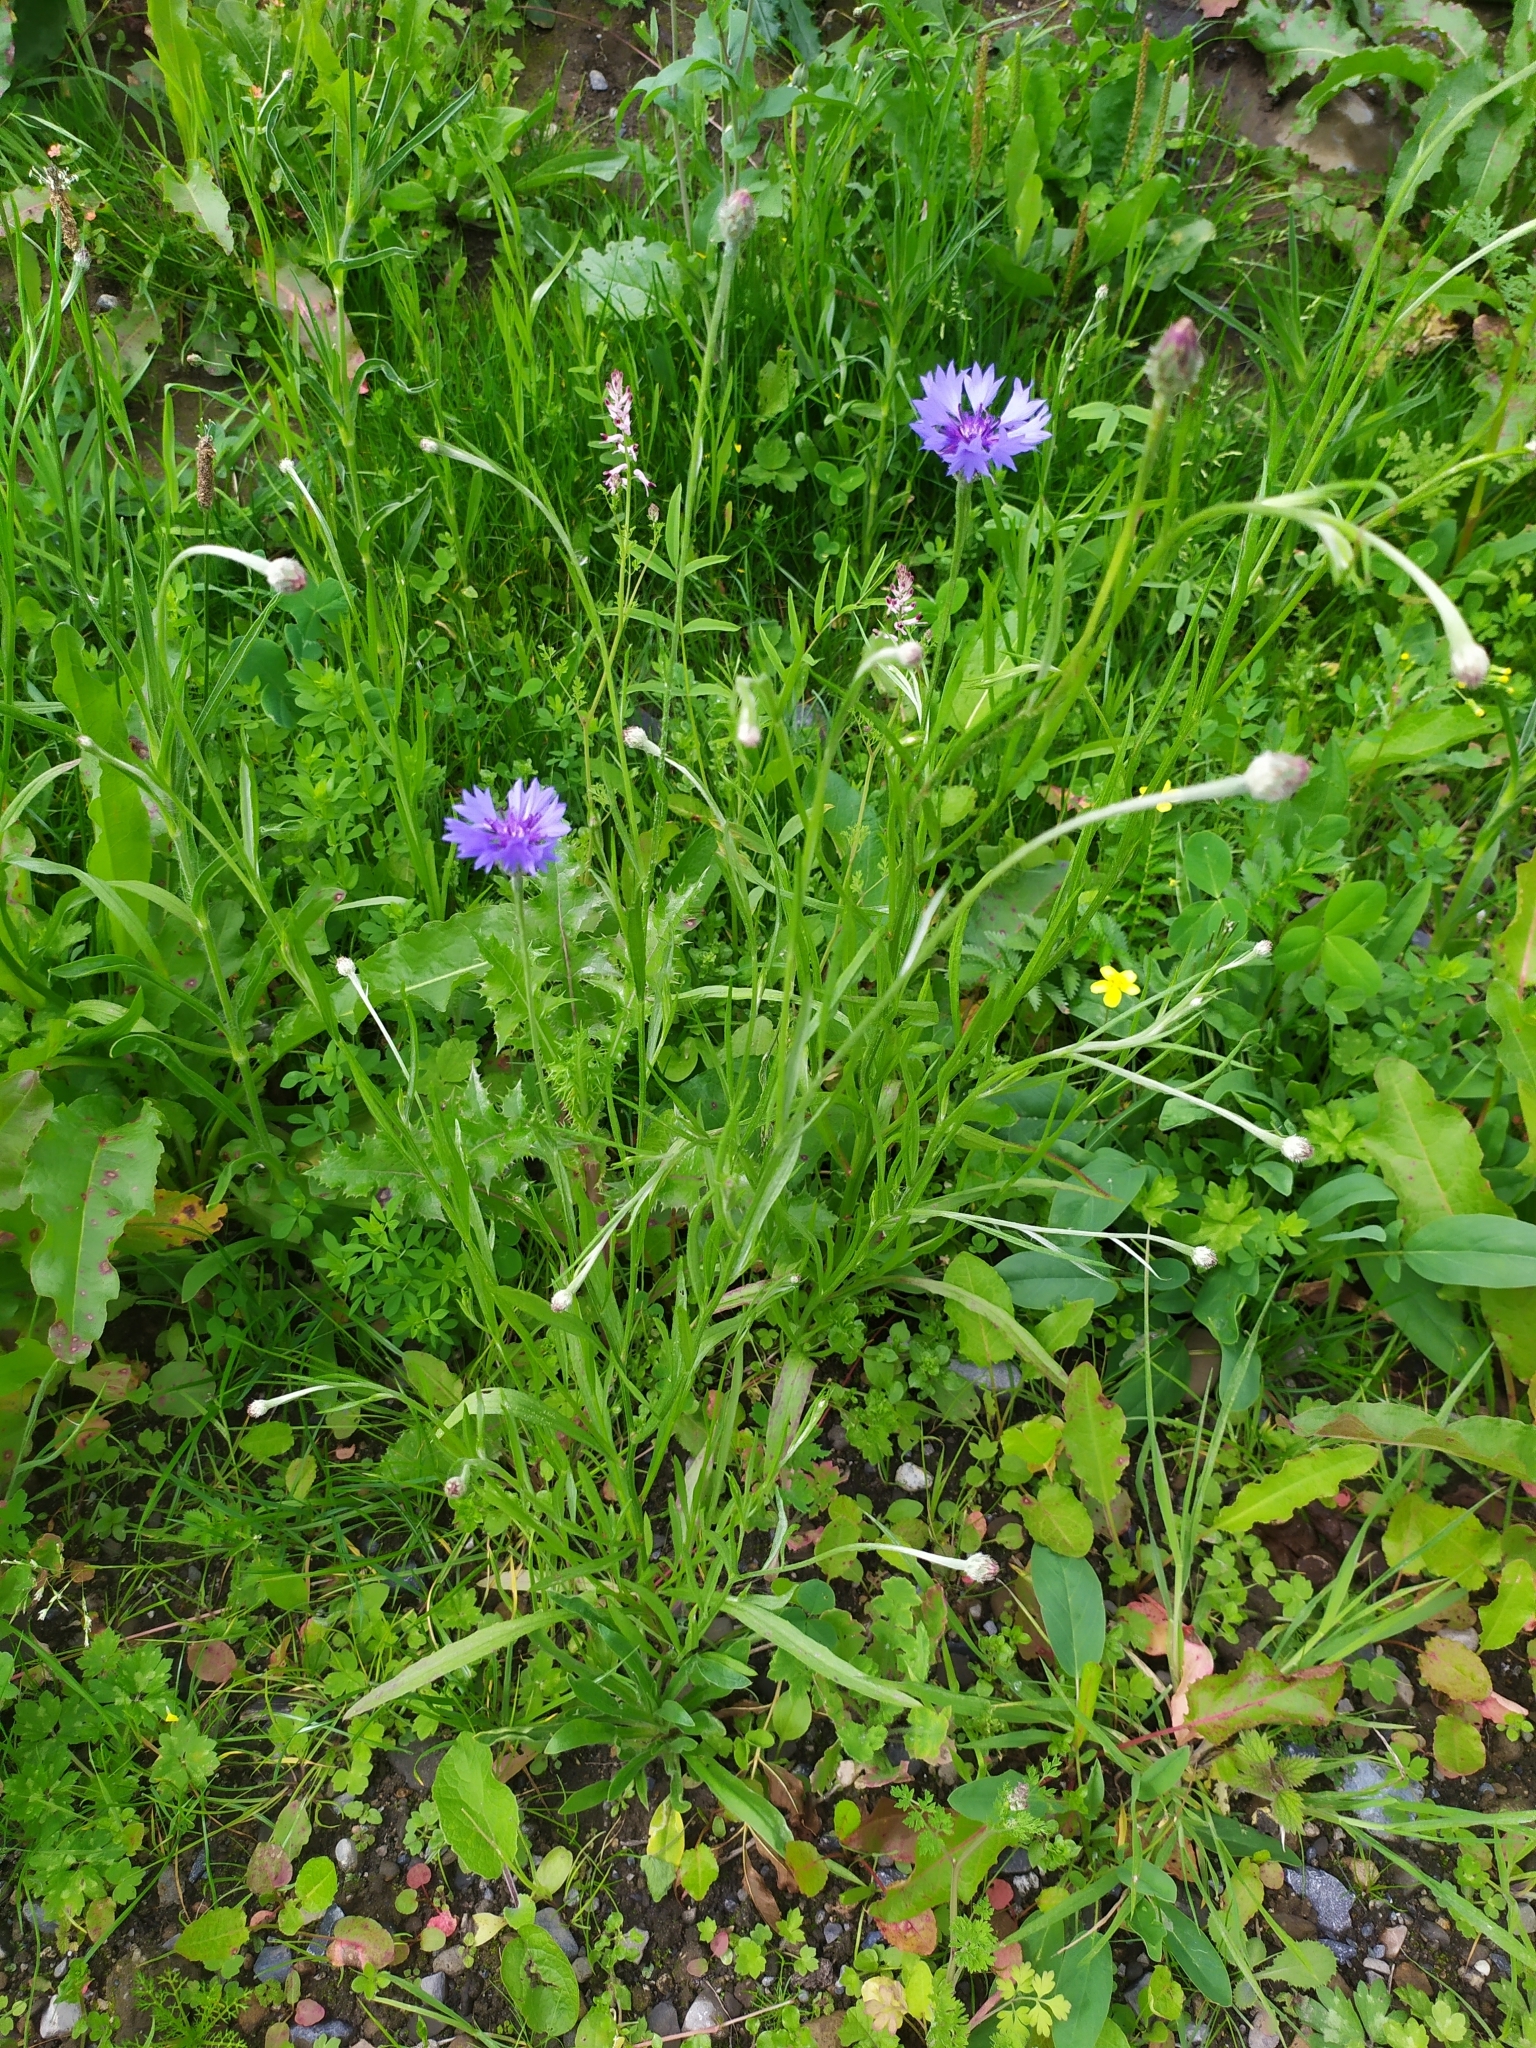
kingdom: Plantae
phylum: Tracheophyta
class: Magnoliopsida
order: Asterales
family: Asteraceae
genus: Centaurea
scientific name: Centaurea cyanus
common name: Cornflower
